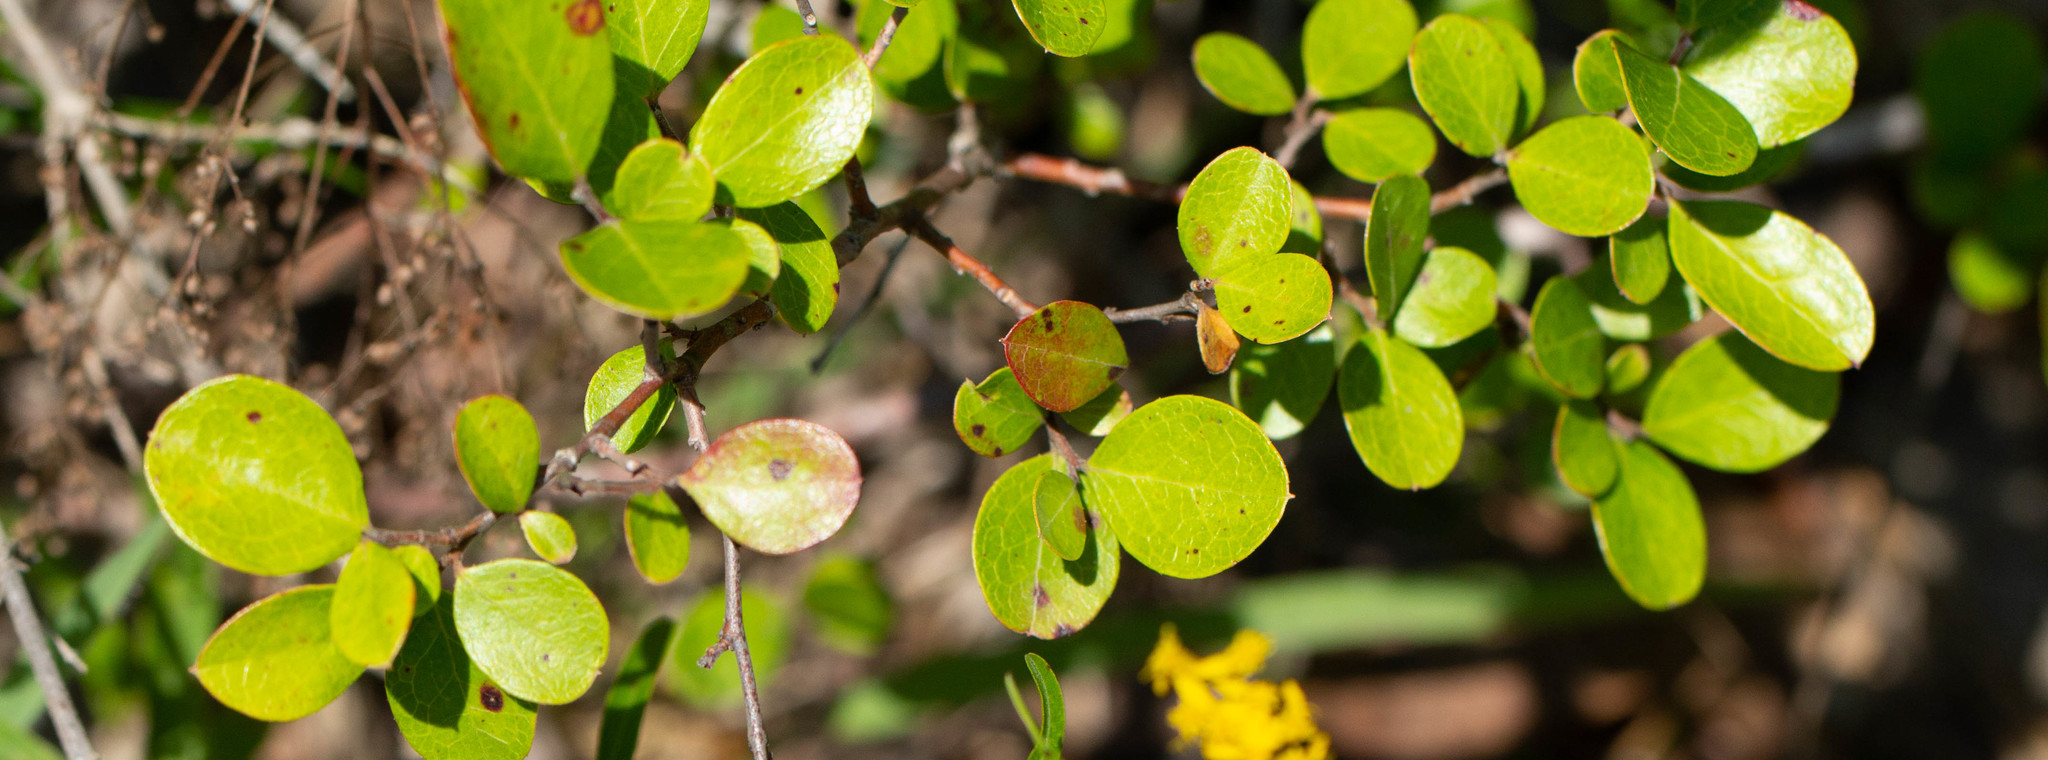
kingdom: Plantae
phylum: Tracheophyta
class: Magnoliopsida
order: Ericales
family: Ericaceae
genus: Vaccinium
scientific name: Vaccinium arboreum
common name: Farkleberry
